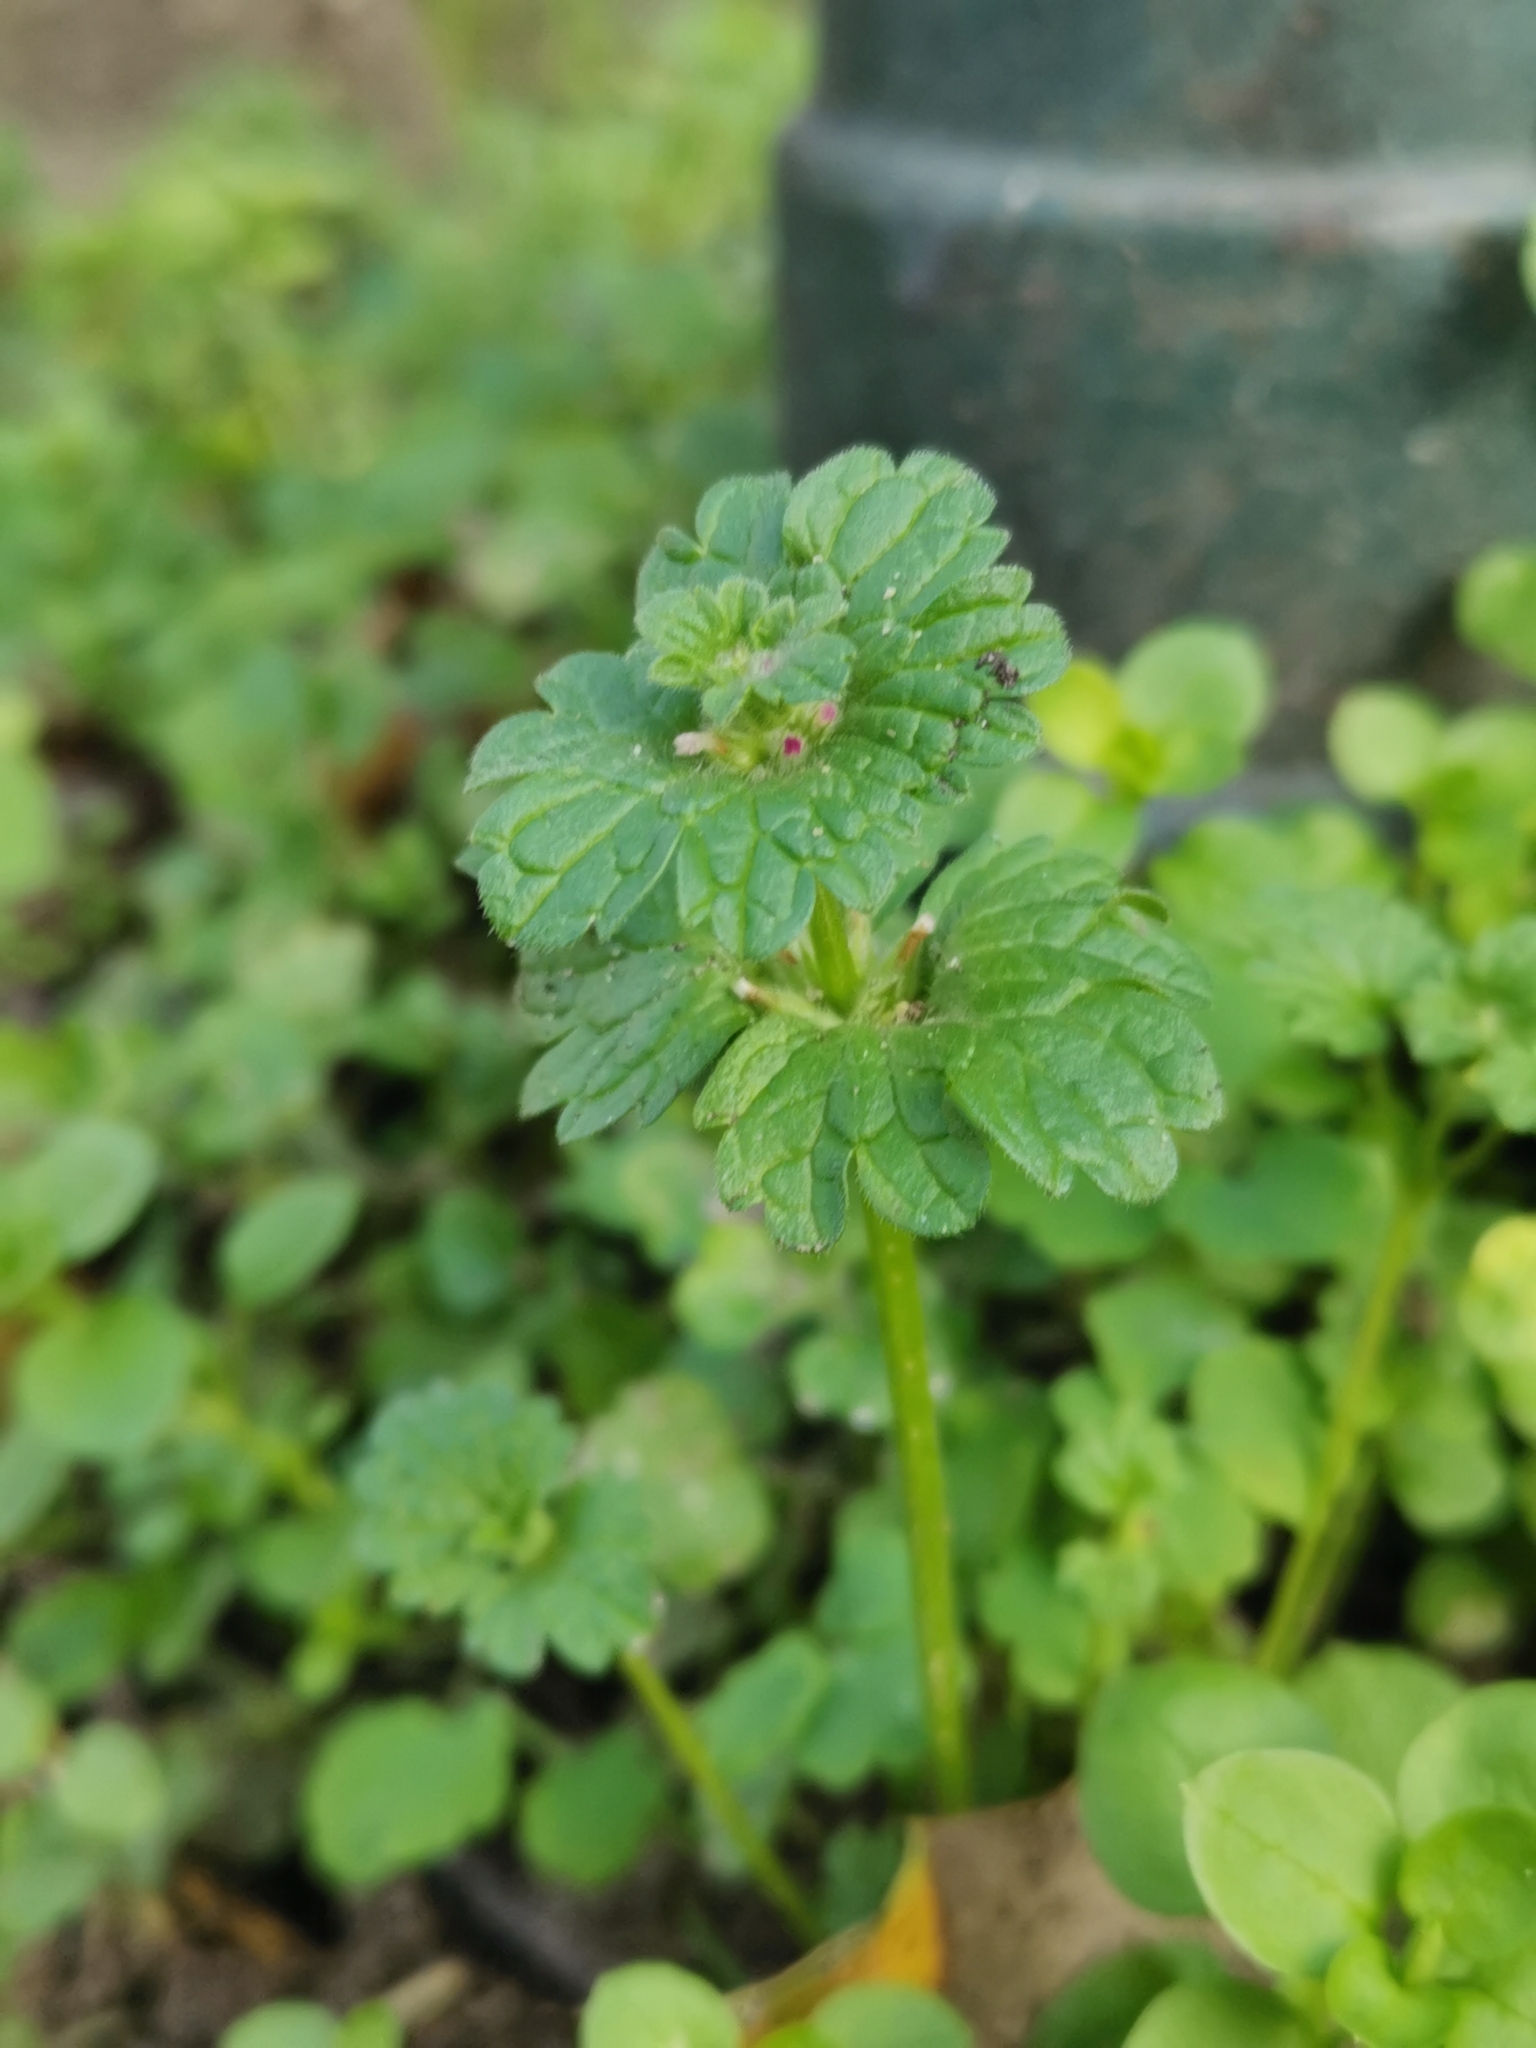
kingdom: Plantae
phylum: Tracheophyta
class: Magnoliopsida
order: Lamiales
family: Lamiaceae
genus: Lamium
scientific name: Lamium amplexicaule
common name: Henbit dead-nettle
